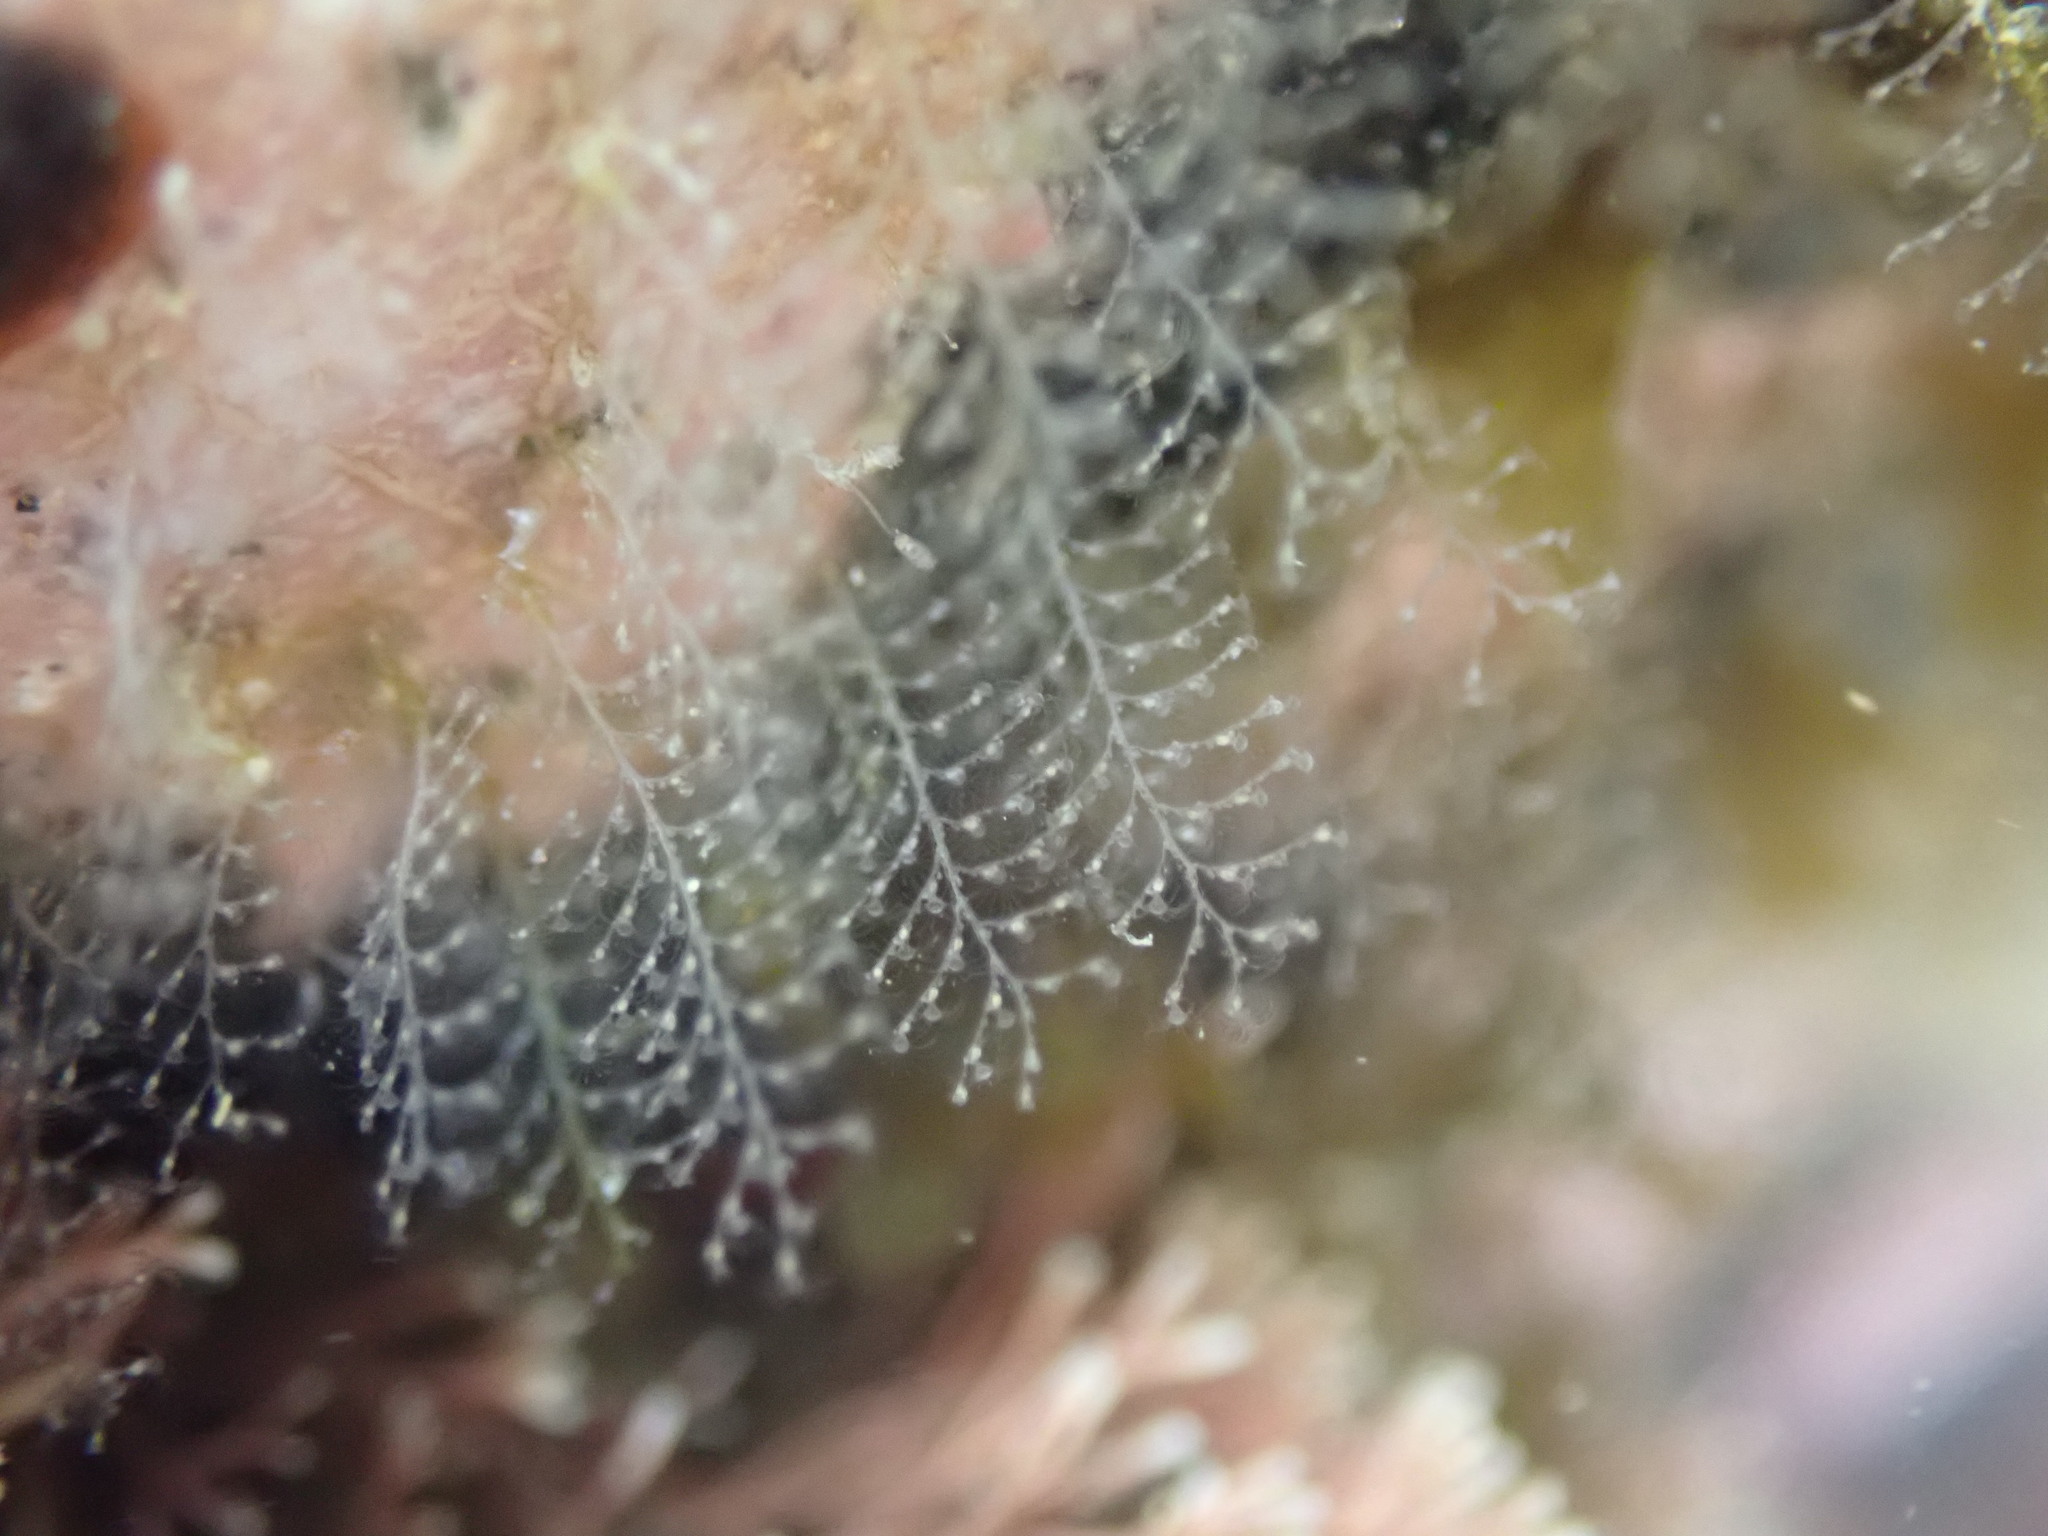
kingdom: Animalia
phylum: Cnidaria
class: Hydrozoa
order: Leptothecata
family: Kirchenpaueriidae
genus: Kirchenpaueria
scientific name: Kirchenpaueria halecioides
